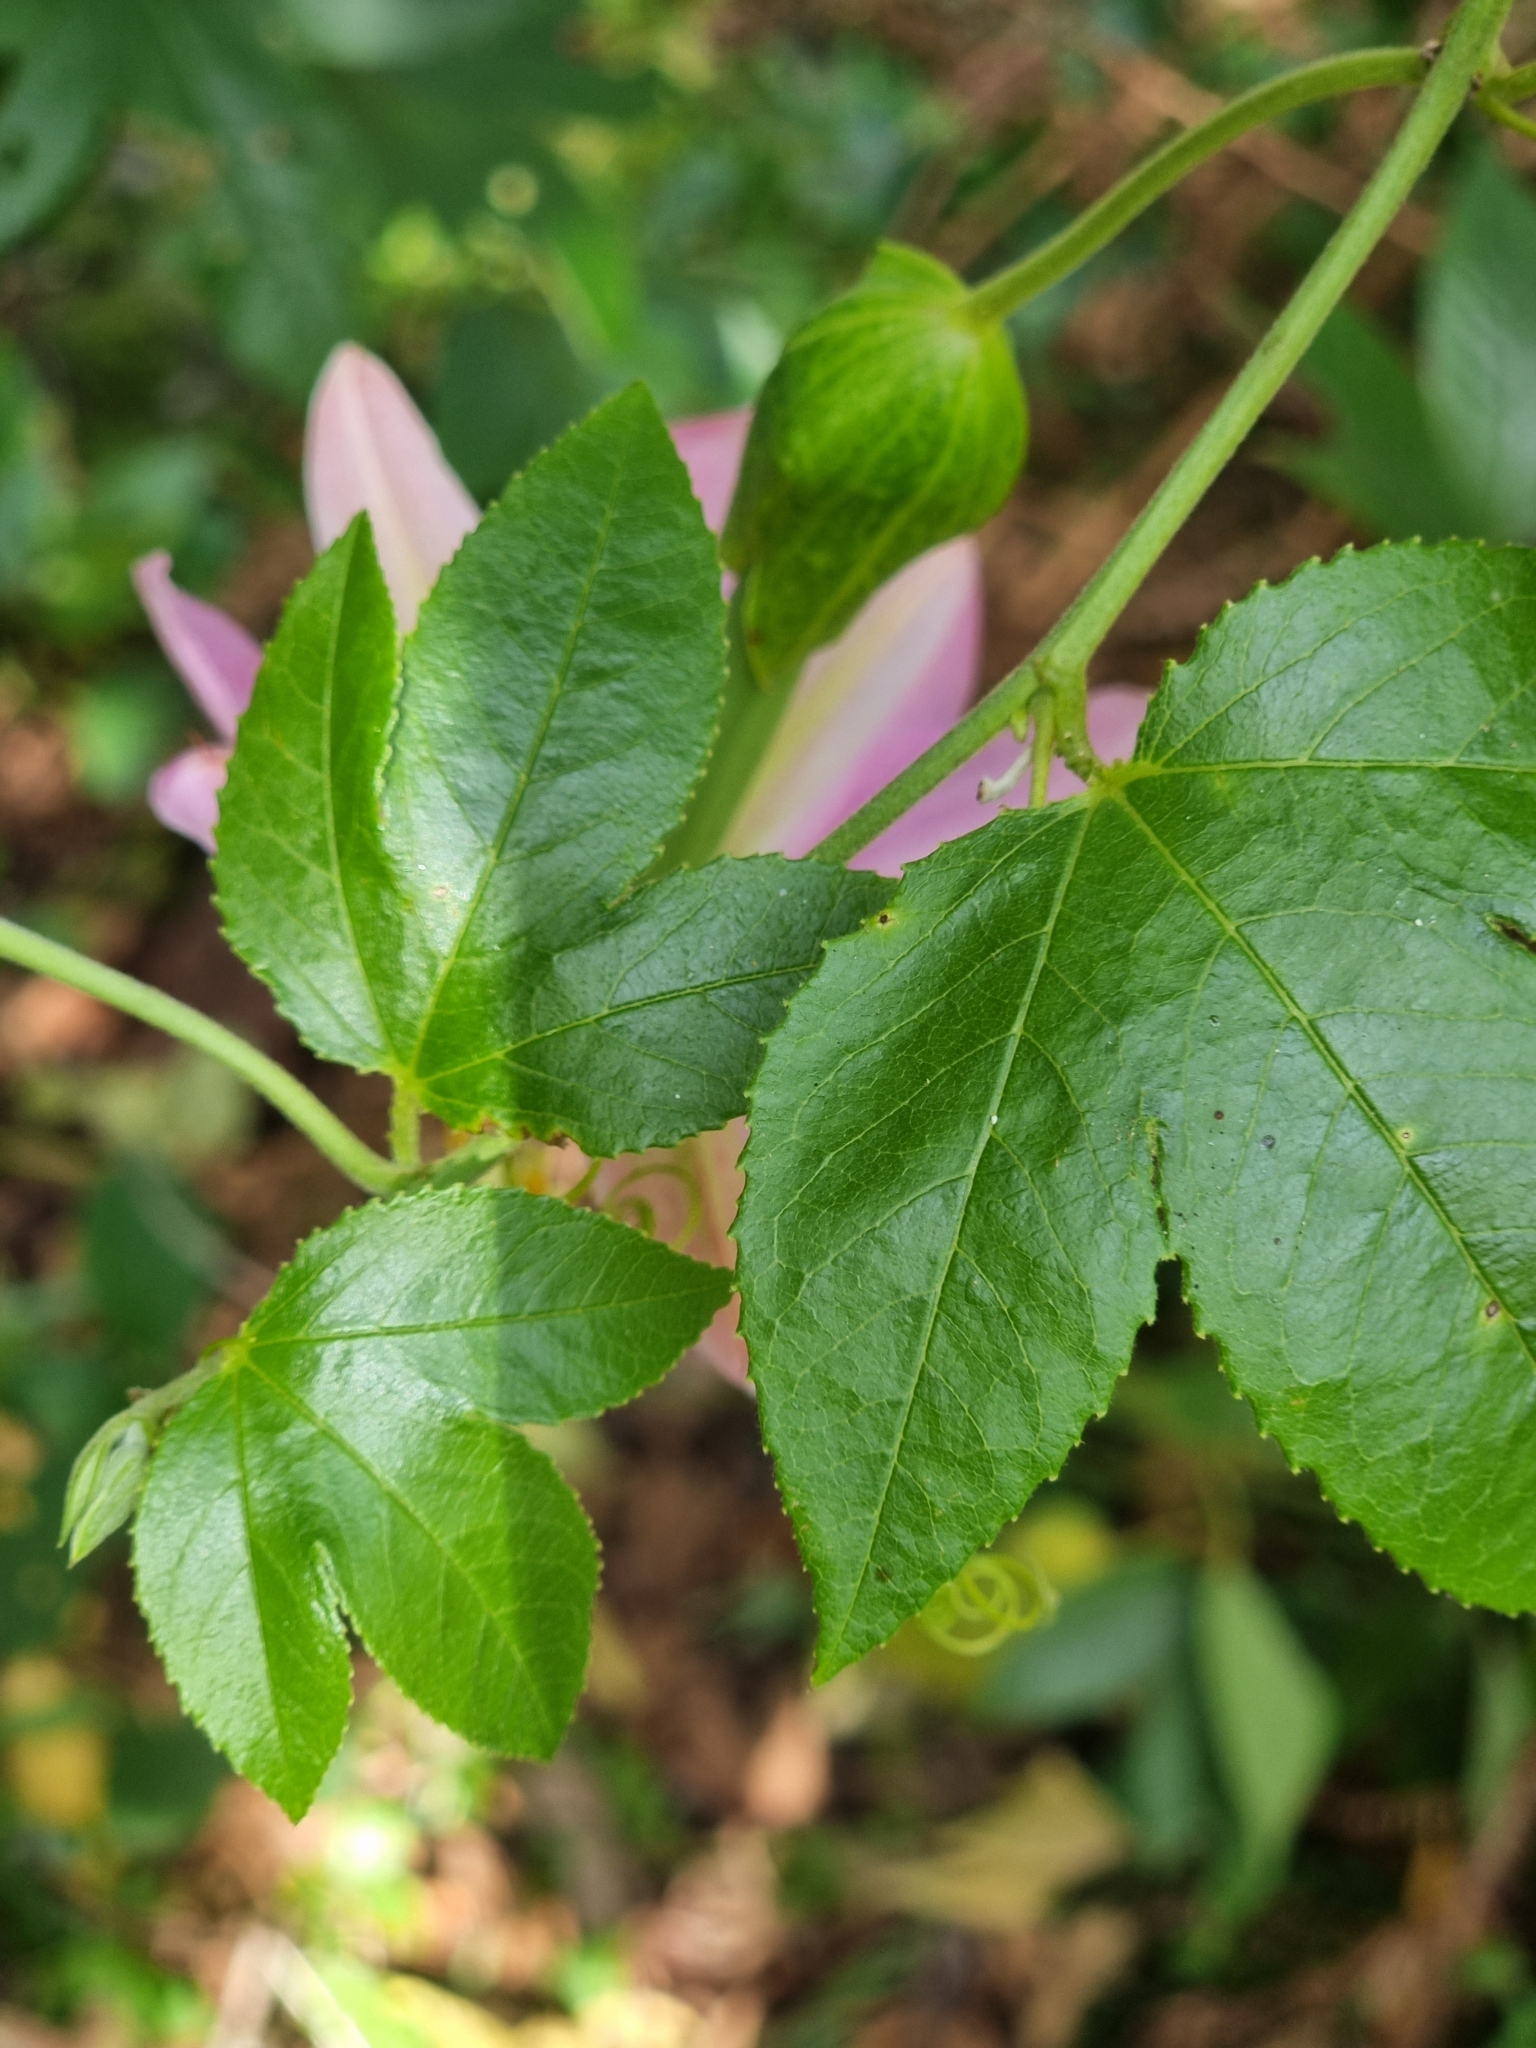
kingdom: Plantae
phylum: Tracheophyta
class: Magnoliopsida
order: Malpighiales
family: Passifloraceae
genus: Passiflora
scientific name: Passiflora tarminiana
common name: Banana poka
